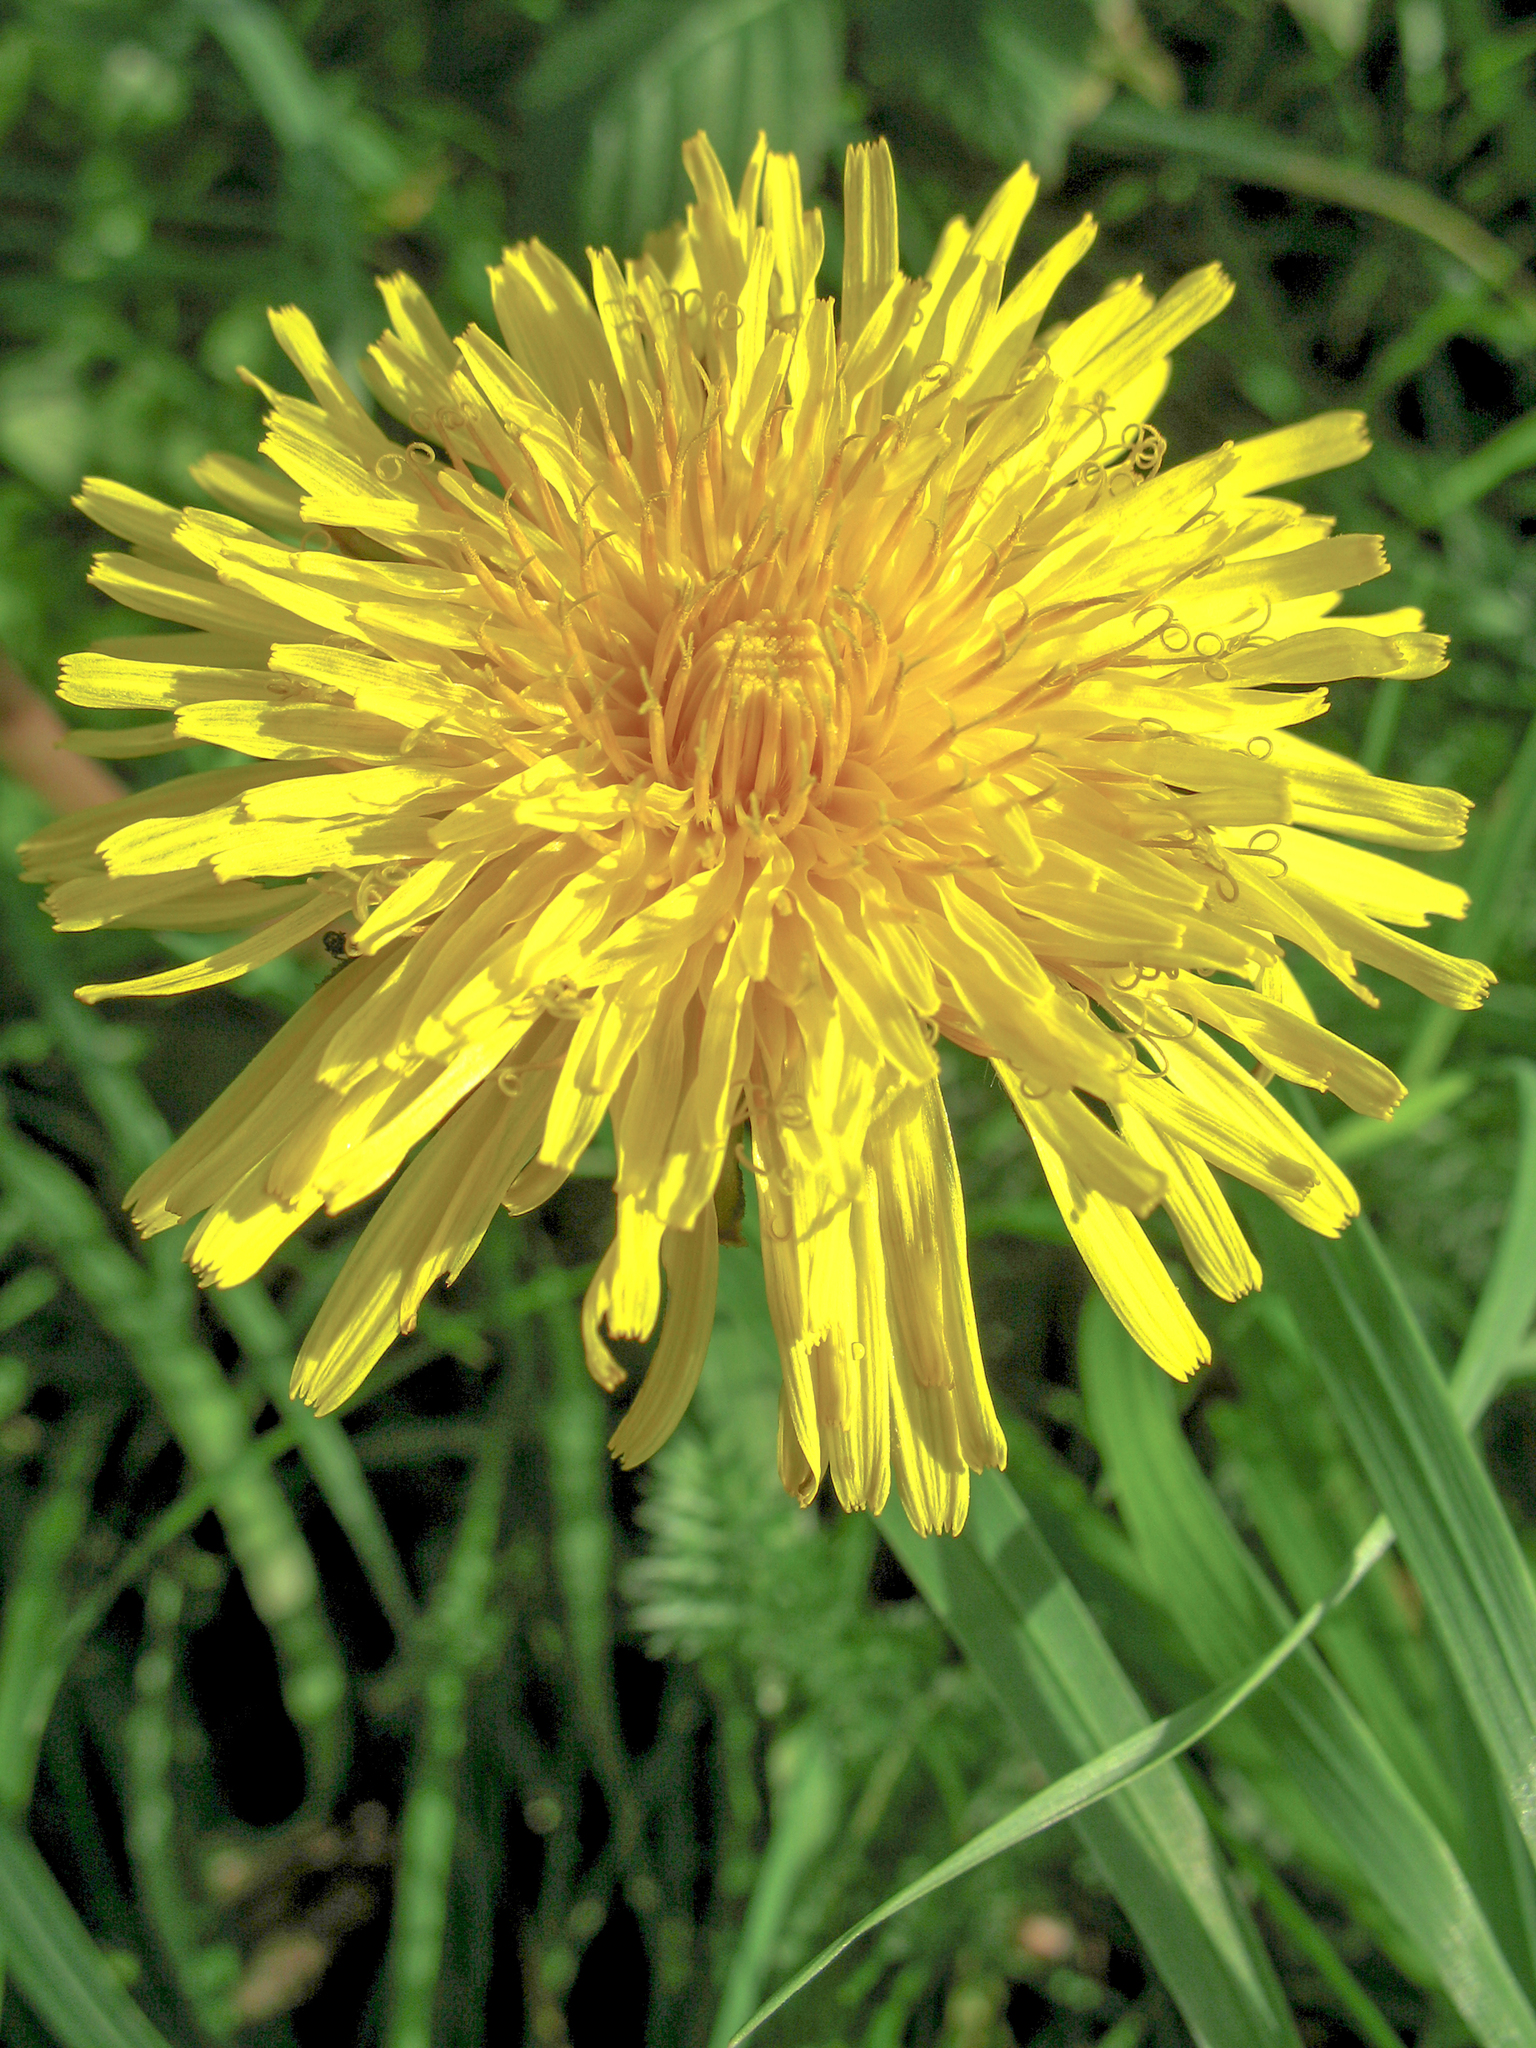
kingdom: Plantae
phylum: Tracheophyta
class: Magnoliopsida
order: Asterales
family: Asteraceae
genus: Taraxacum
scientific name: Taraxacum officinale
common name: Common dandelion
